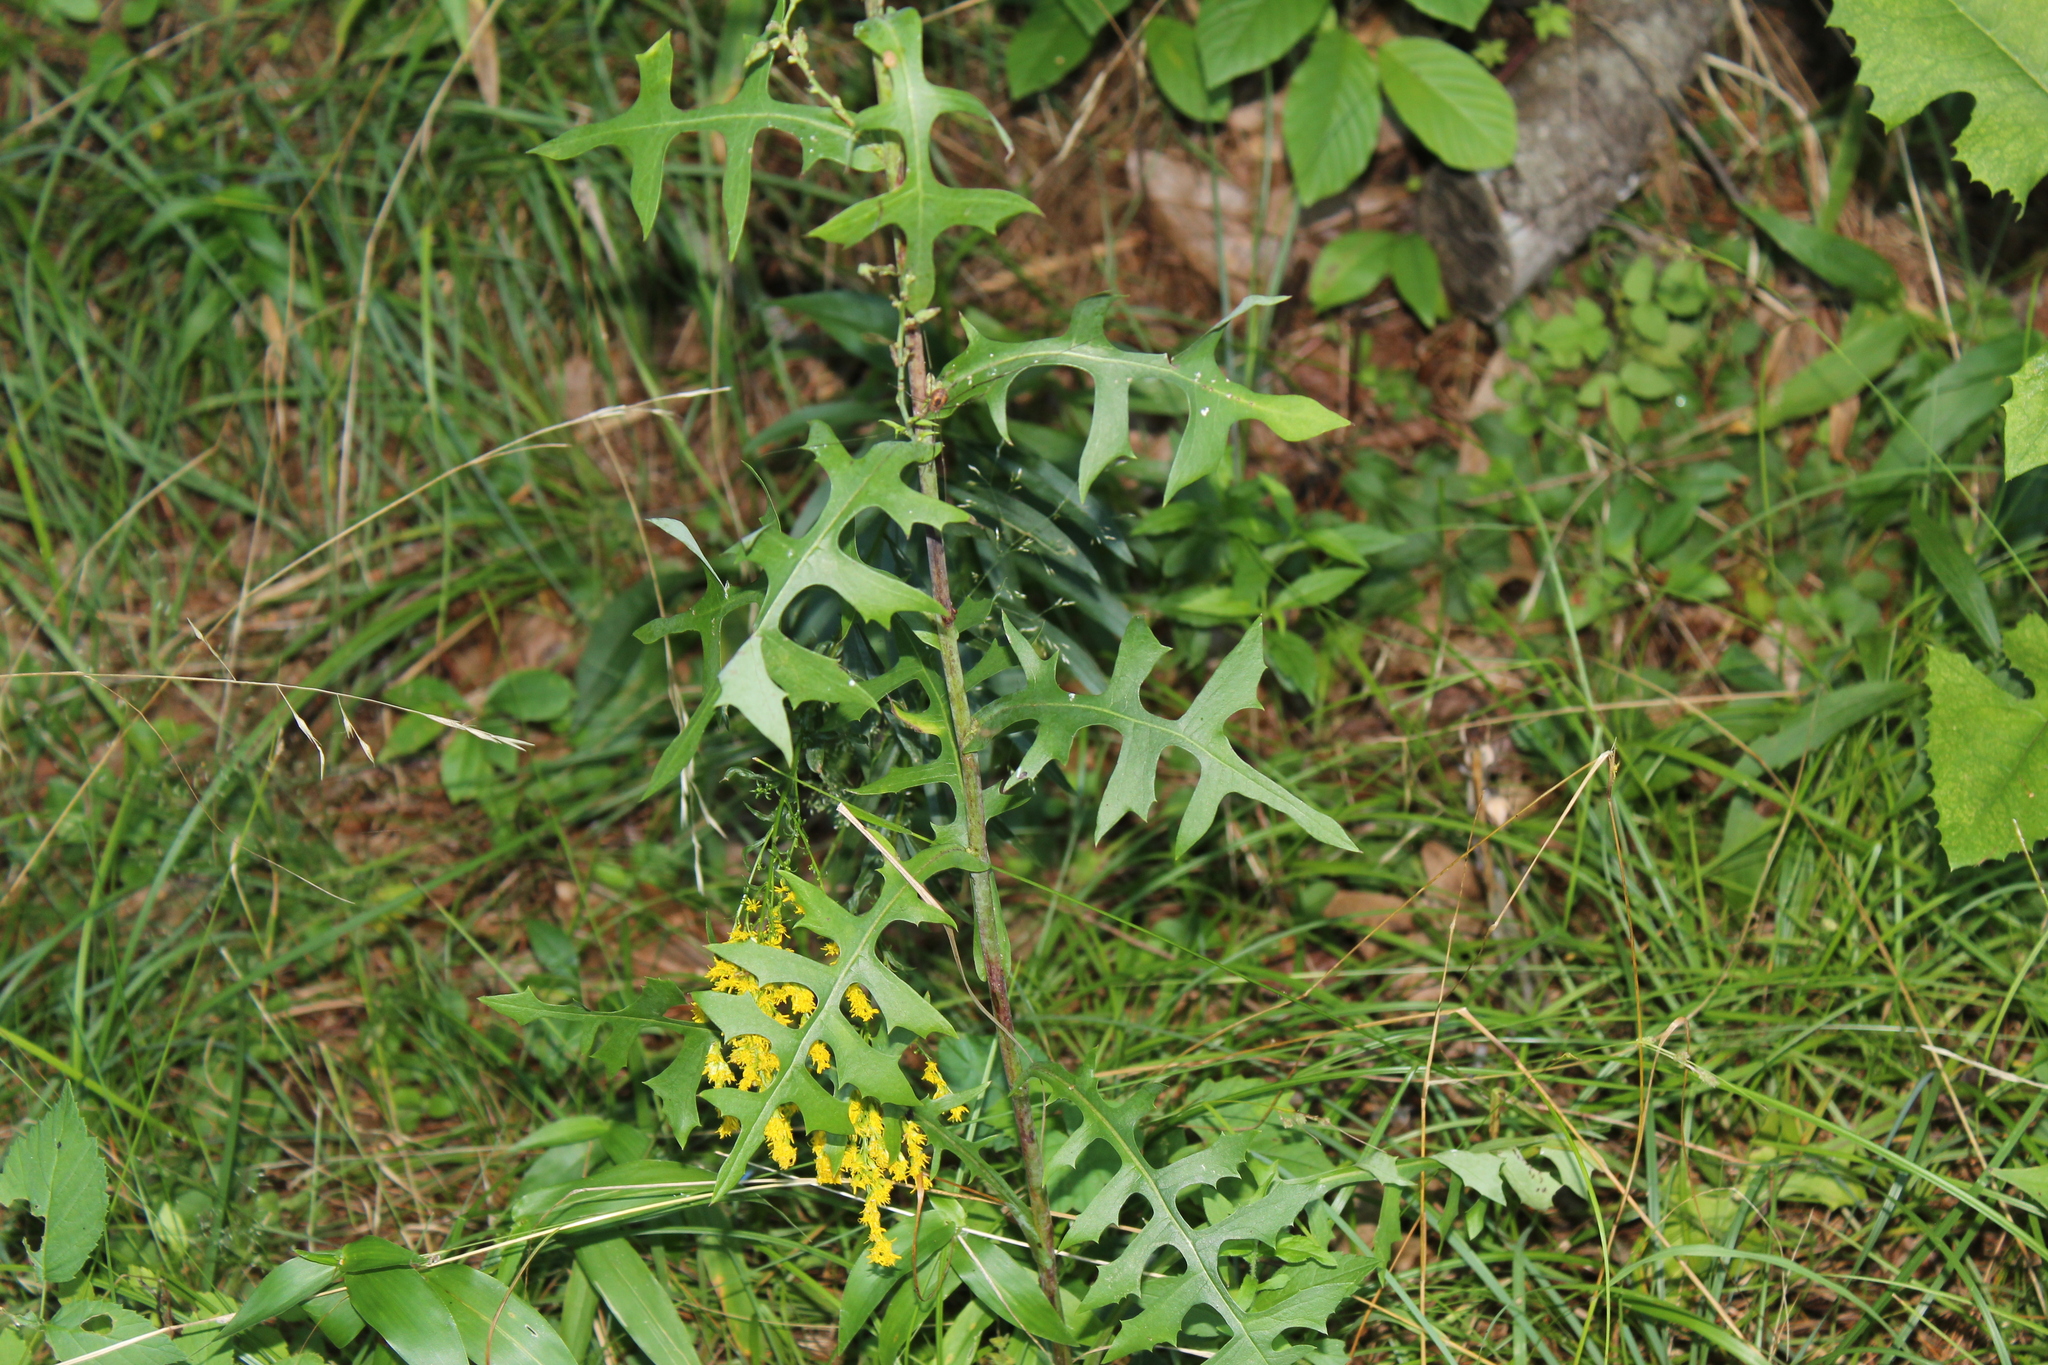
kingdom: Plantae
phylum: Tracheophyta
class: Magnoliopsida
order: Asterales
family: Asteraceae
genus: Lactuca
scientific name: Lactuca canadensis
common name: Canada lettuce
